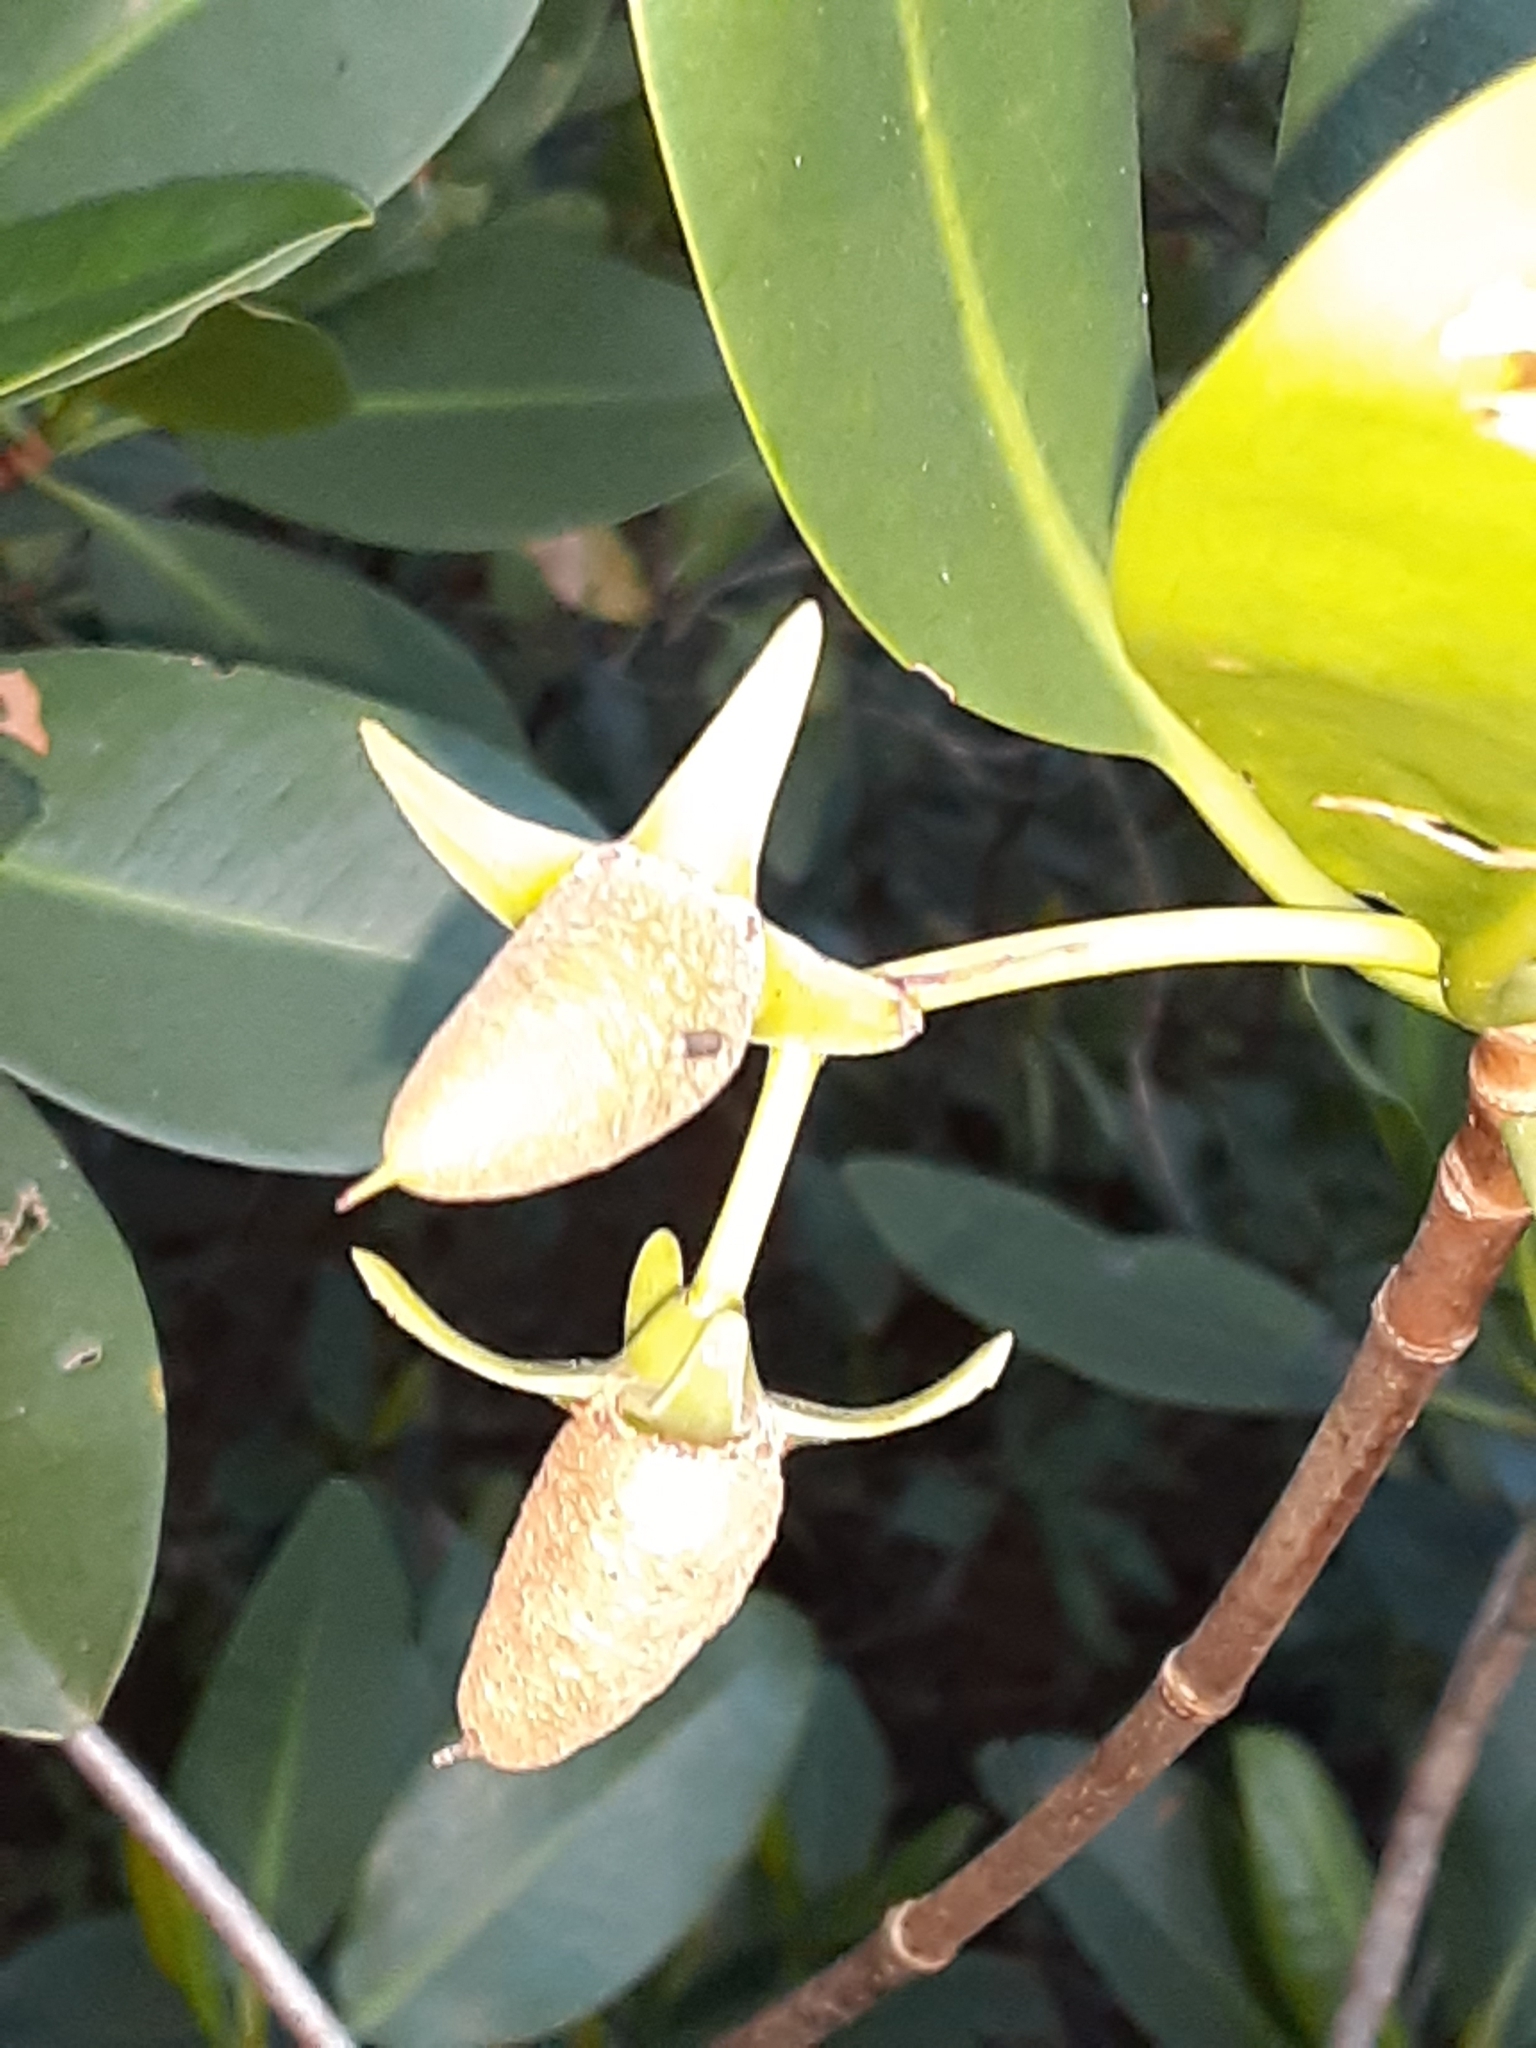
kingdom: Plantae
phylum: Tracheophyta
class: Magnoliopsida
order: Malpighiales
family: Rhizophoraceae
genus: Rhizophora
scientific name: Rhizophora mangle
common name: Red mangrove
